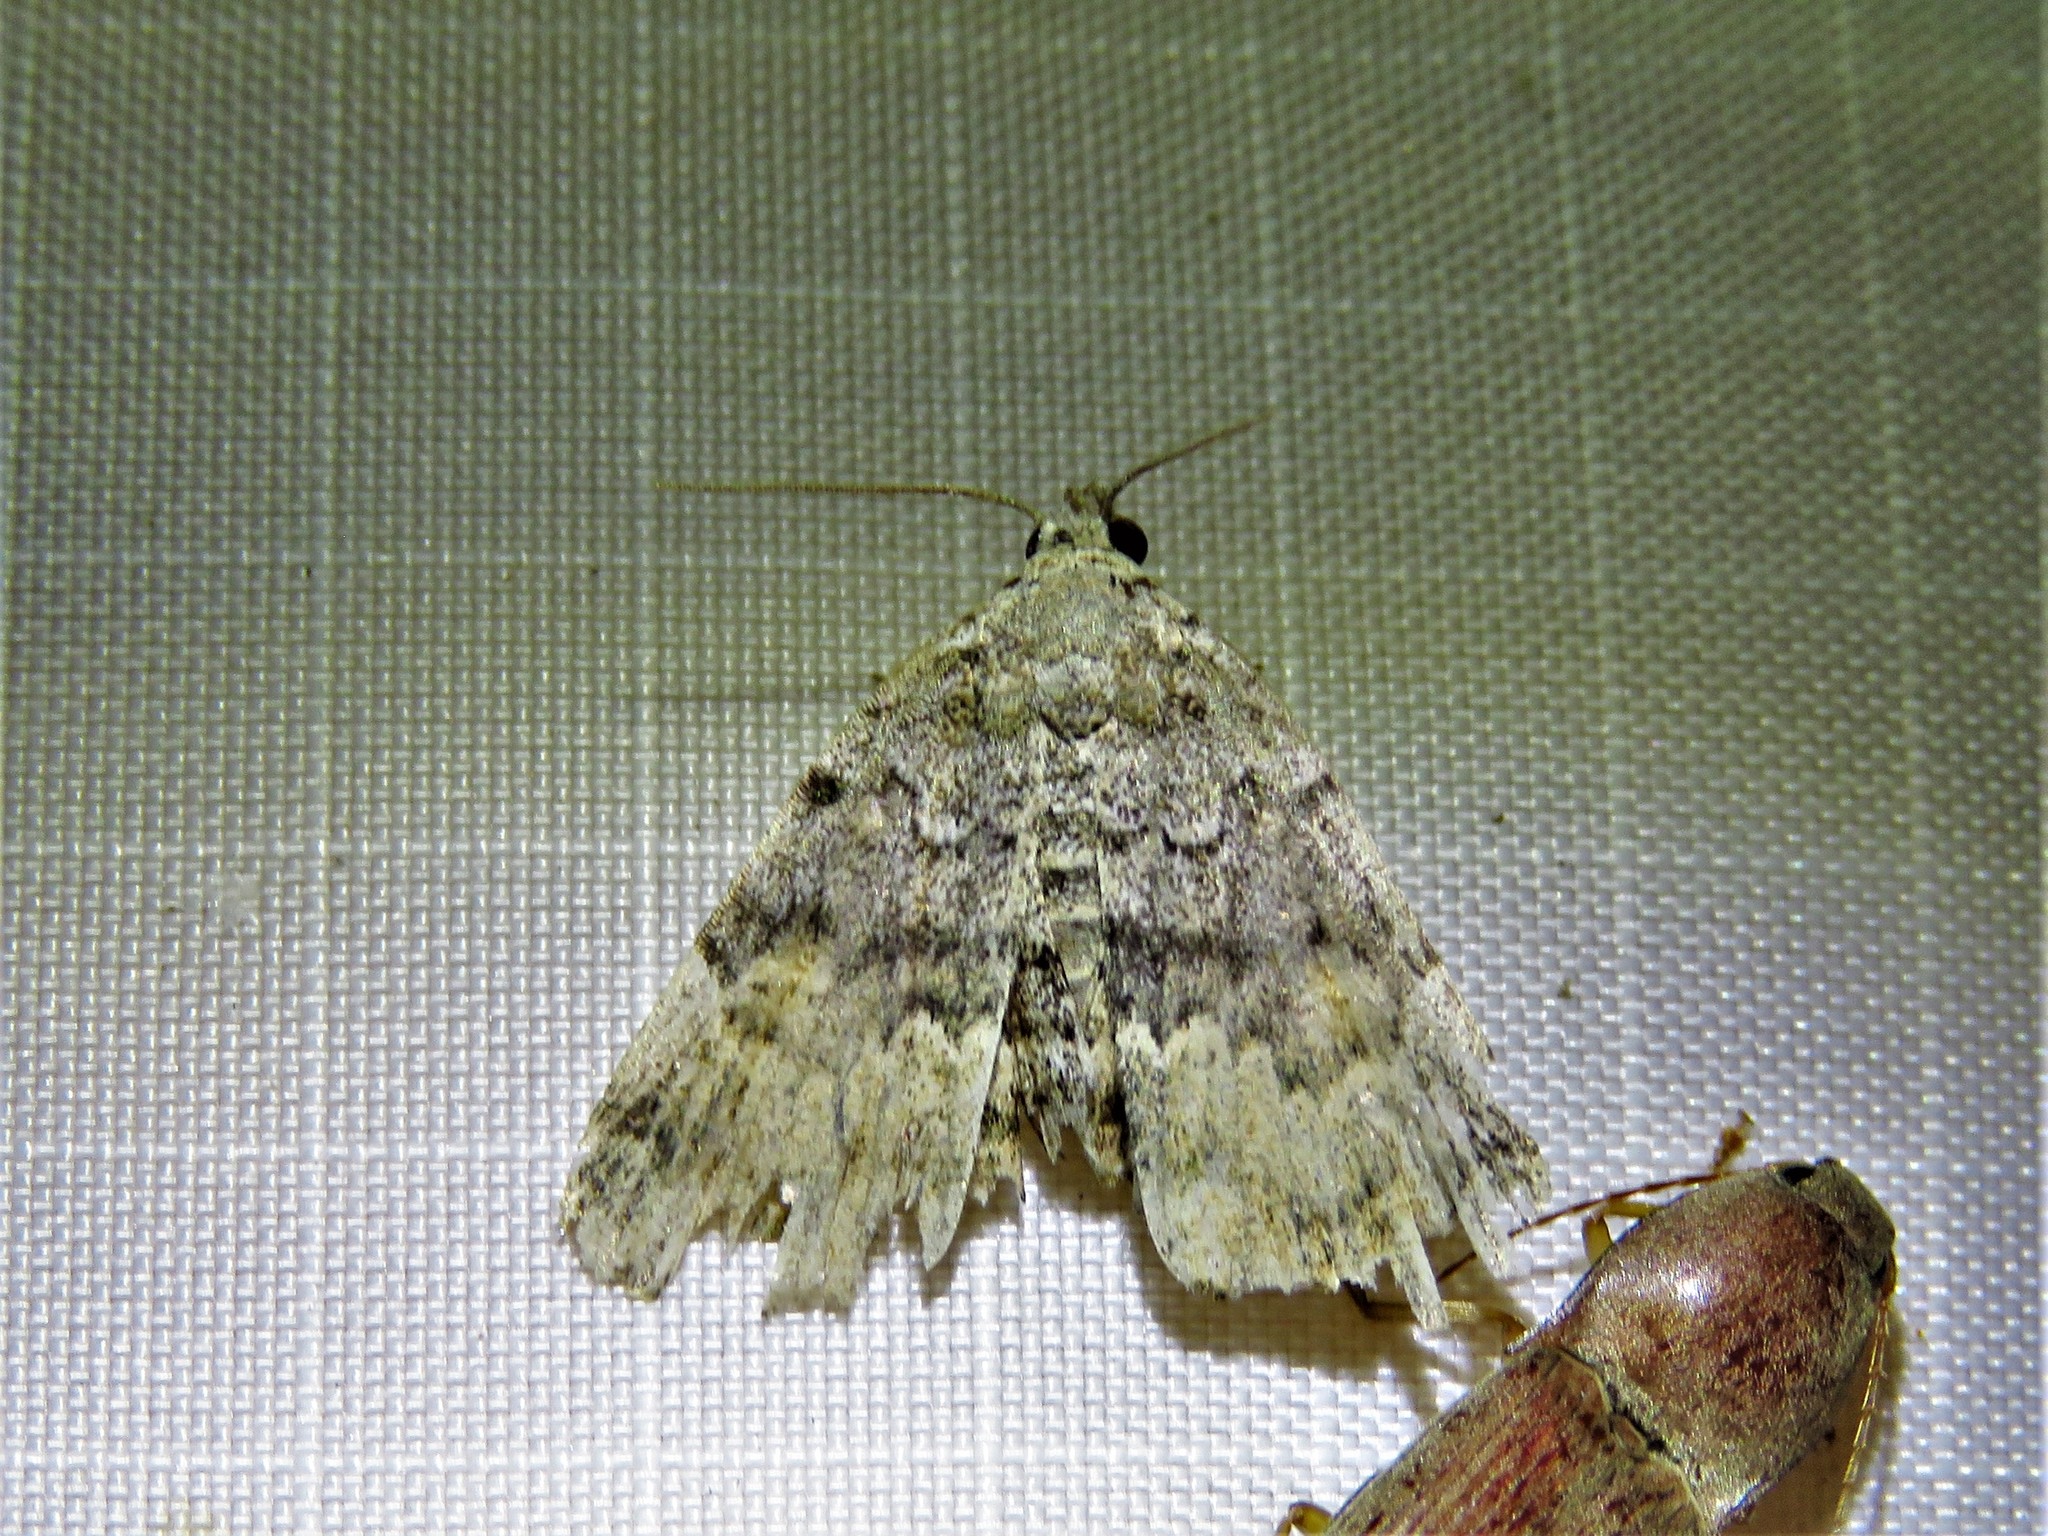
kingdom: Animalia
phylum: Arthropoda
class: Insecta
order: Lepidoptera
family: Erebidae
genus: Idia
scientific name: Idia aemula
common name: Common idia moth
